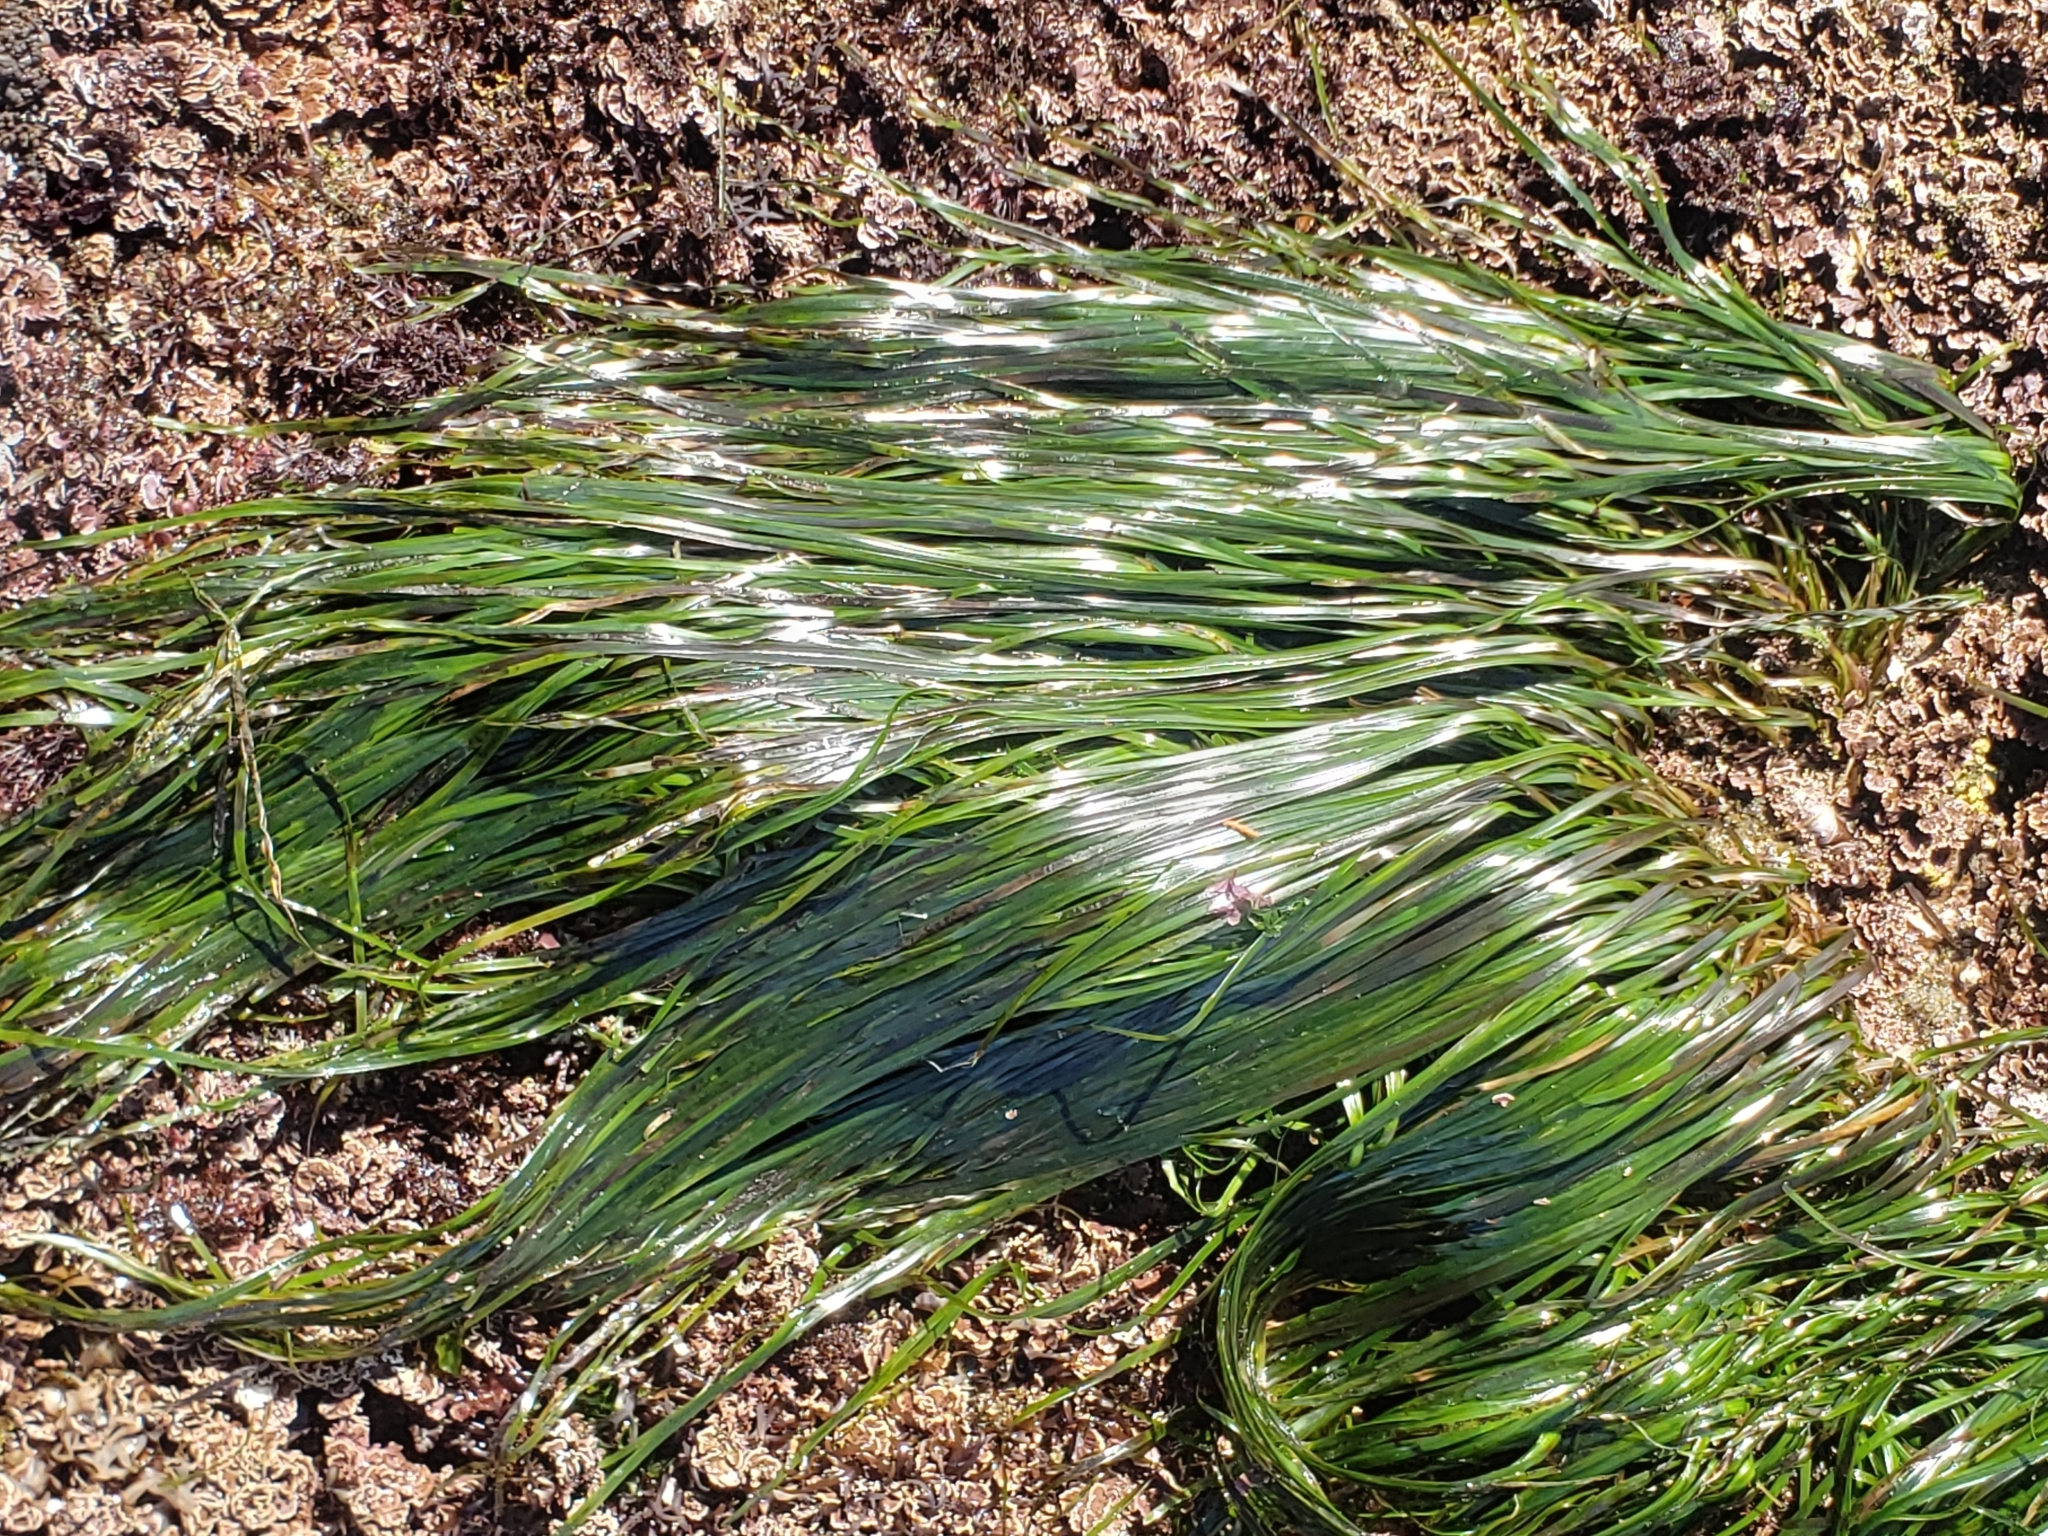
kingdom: Plantae
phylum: Tracheophyta
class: Liliopsida
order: Alismatales
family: Zosteraceae
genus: Phyllospadix
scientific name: Phyllospadix scouleri
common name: Species code: ps
